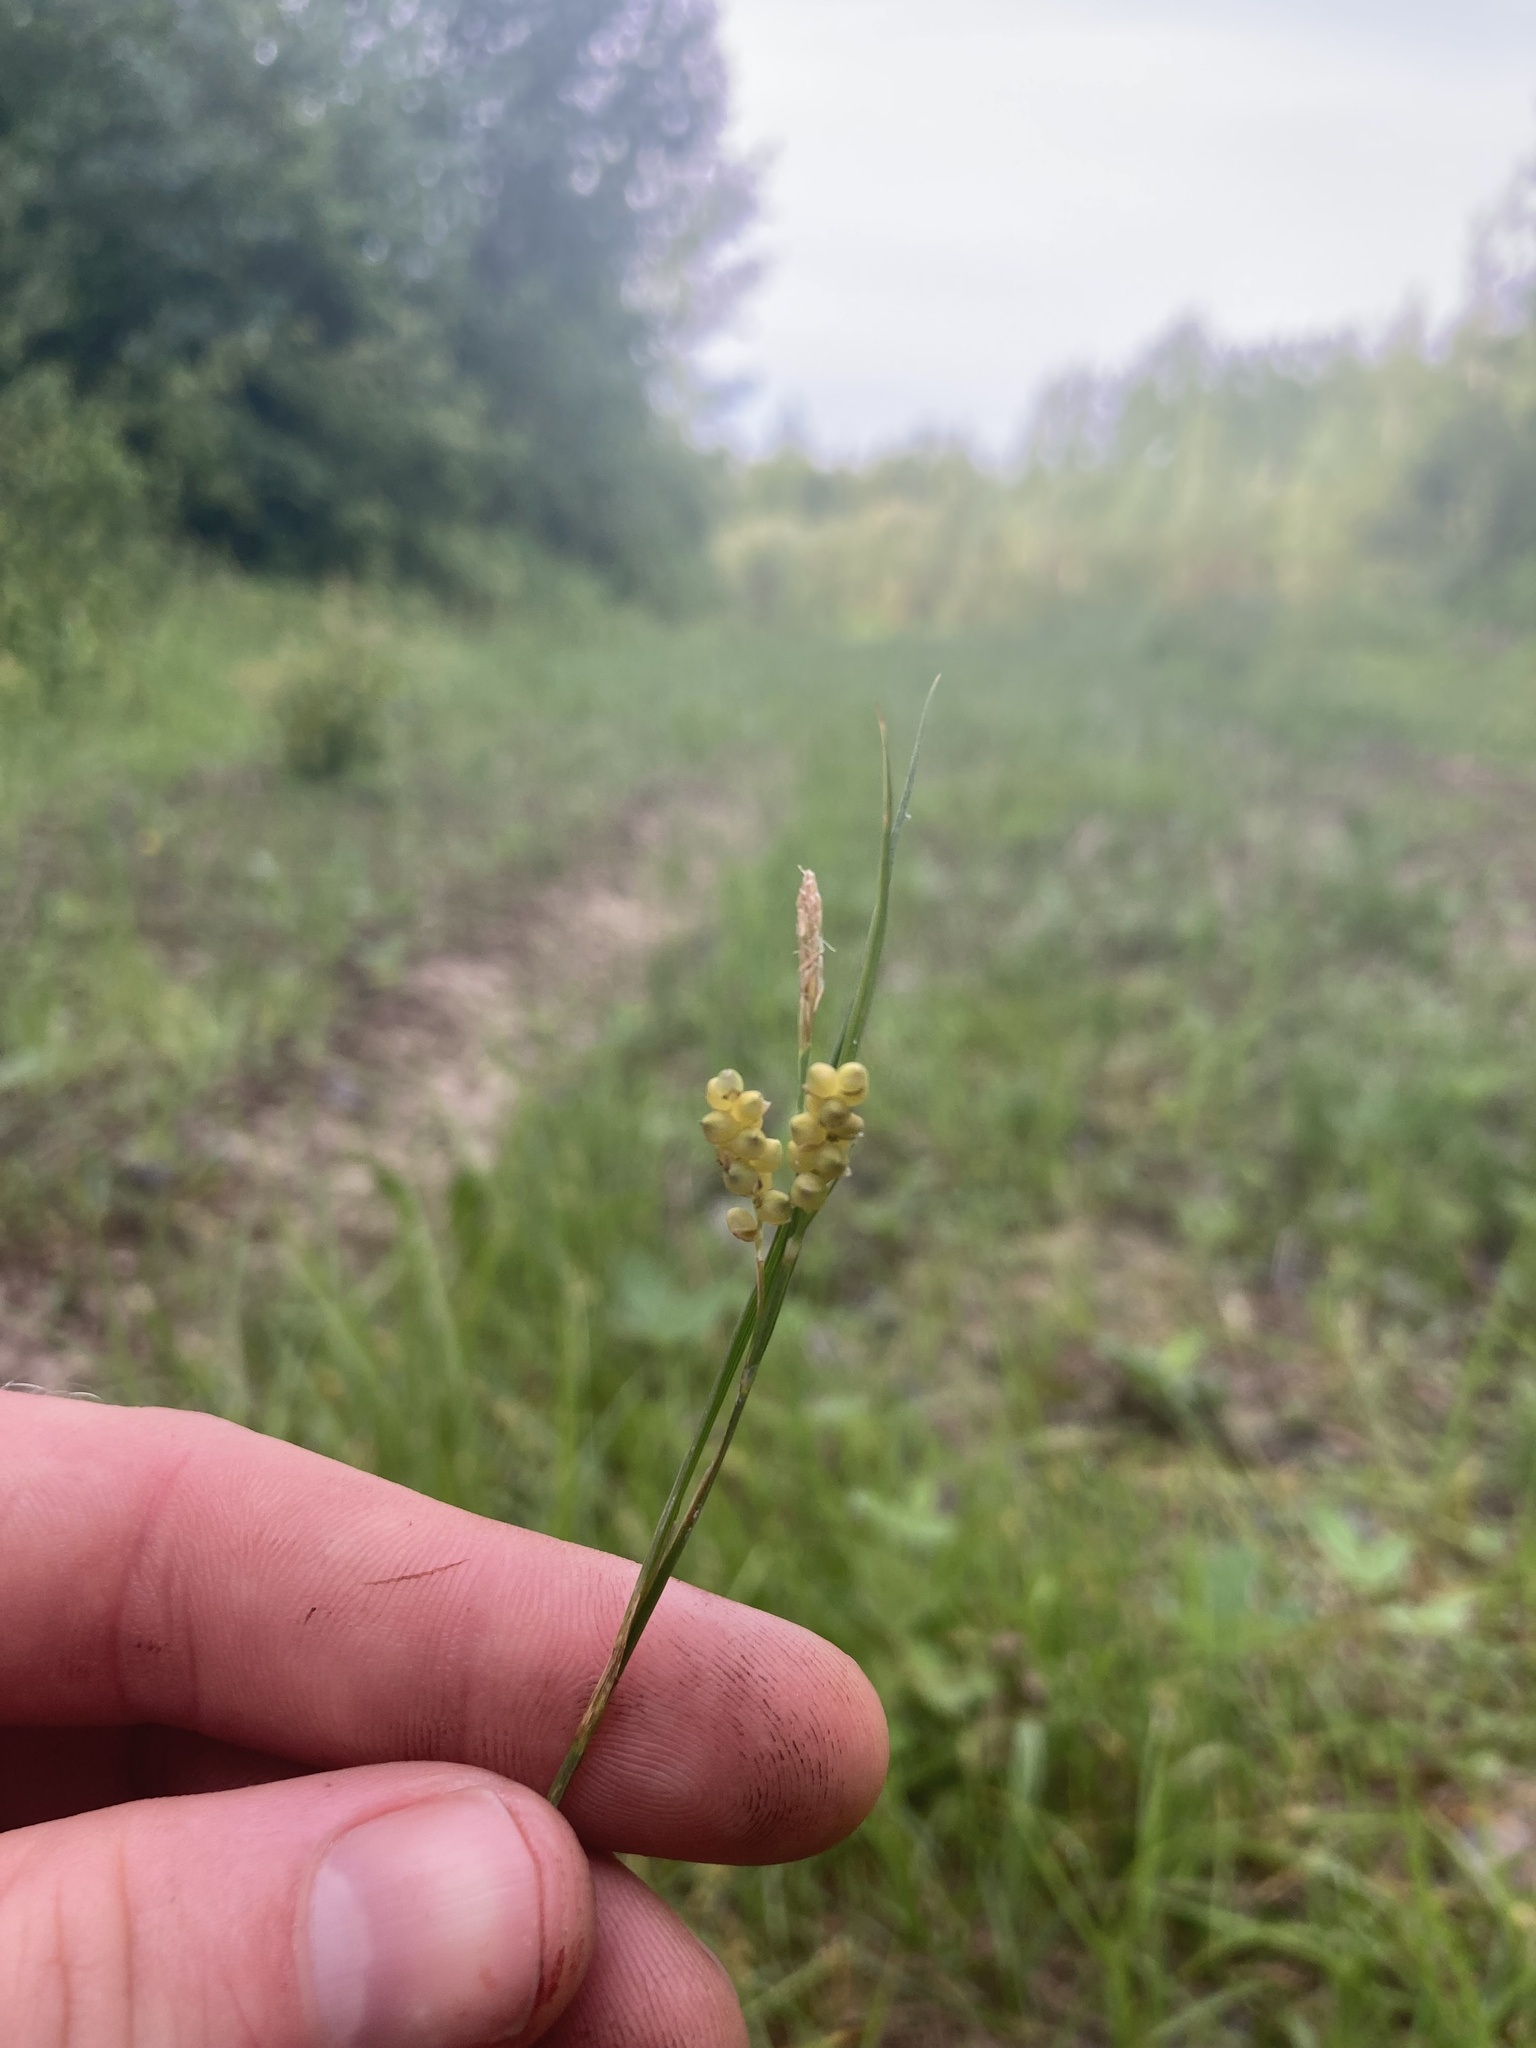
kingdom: Plantae
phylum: Tracheophyta
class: Liliopsida
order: Poales
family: Cyperaceae
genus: Carex
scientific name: Carex aurea
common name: Golden sedge
